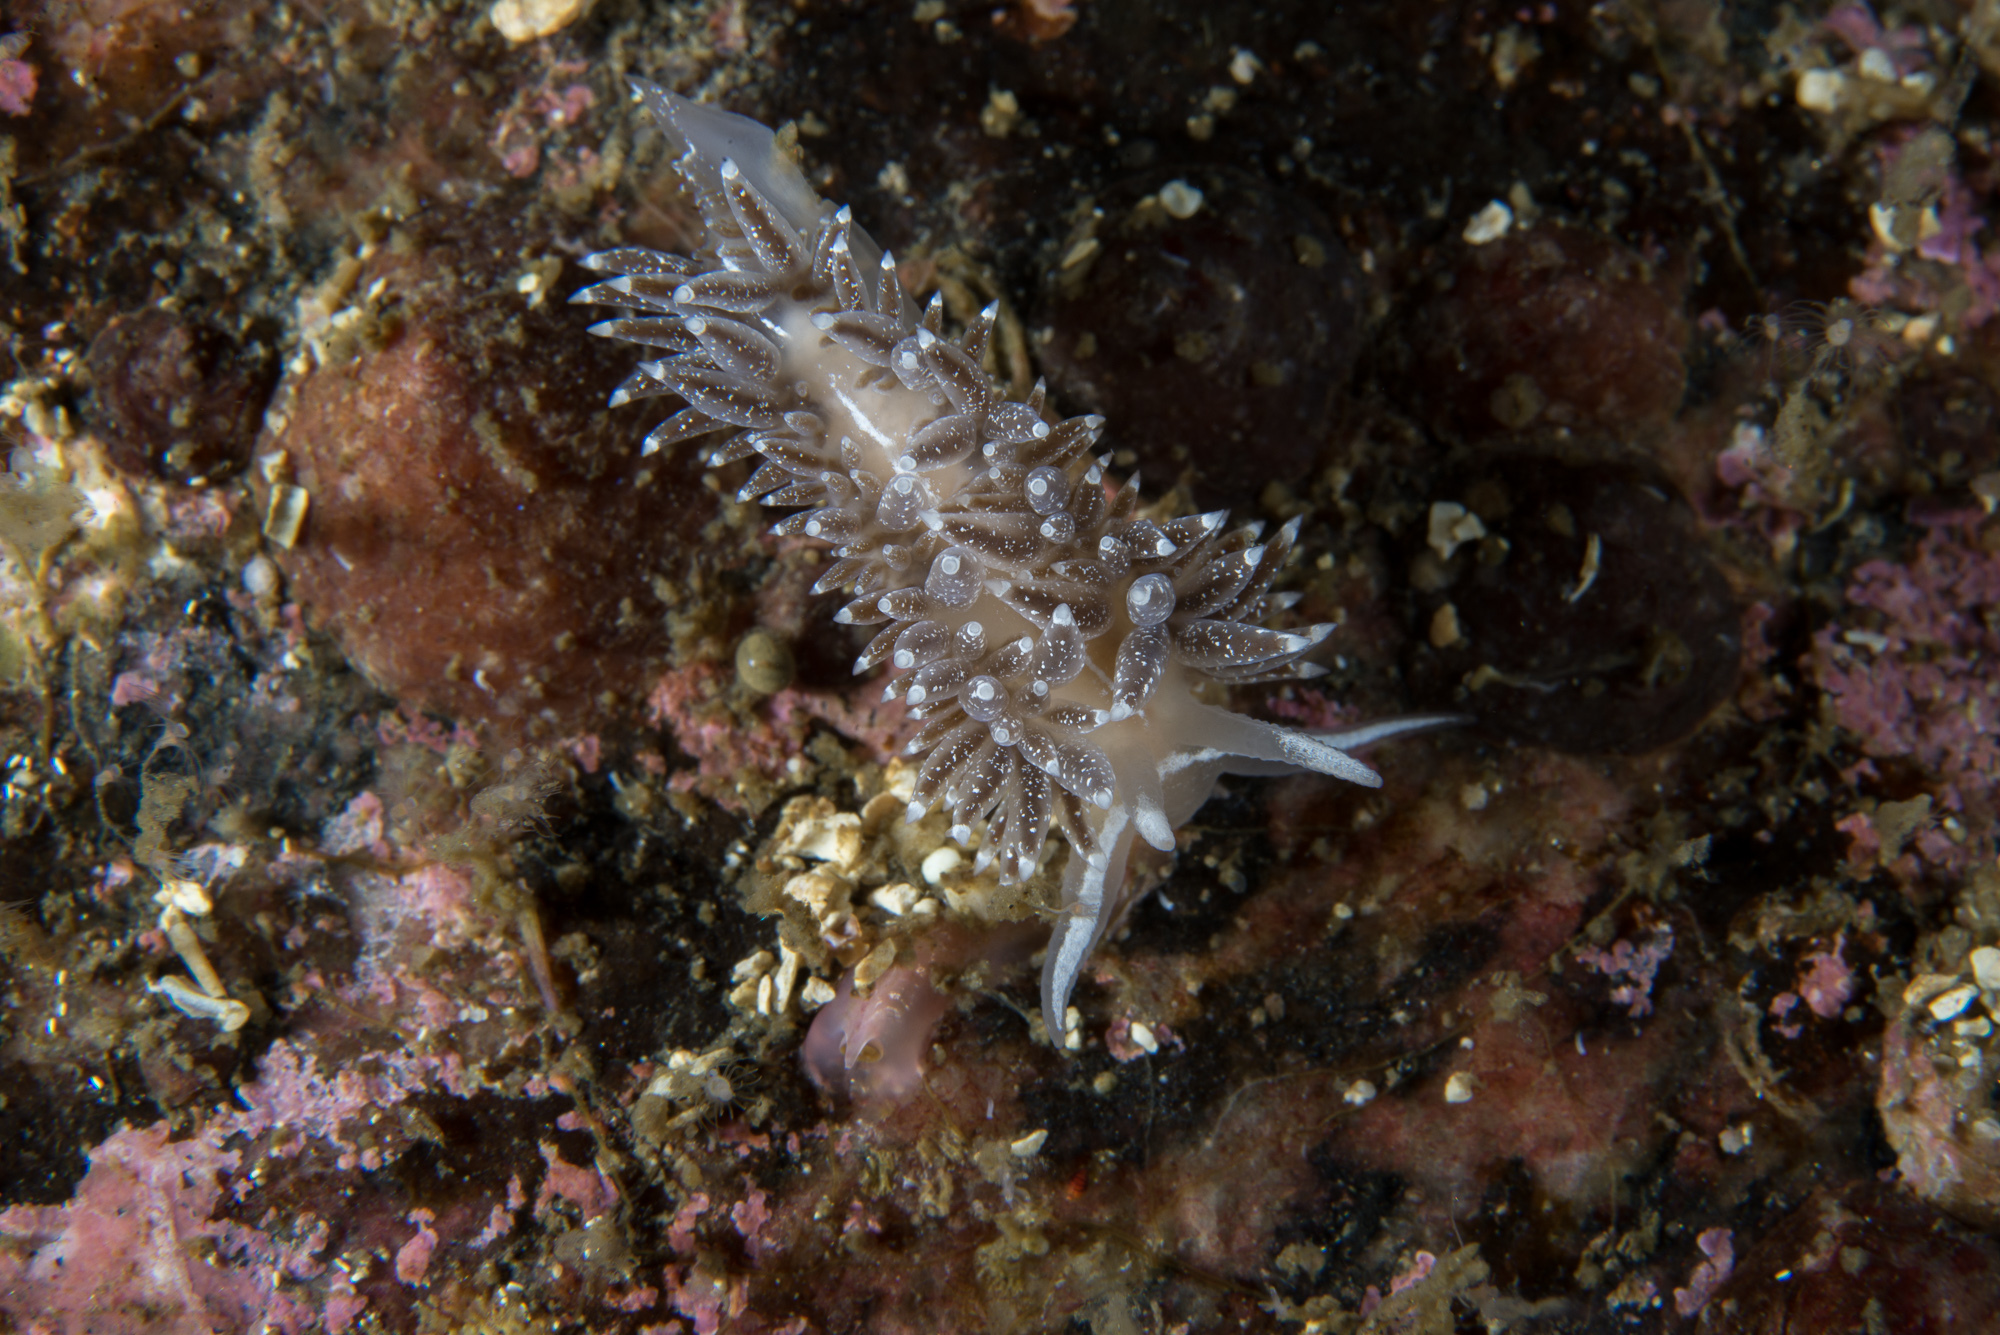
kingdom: Animalia
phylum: Mollusca
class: Gastropoda
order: Nudibranchia
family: Coryphellidae
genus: Coryphella
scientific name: Coryphella orjani
